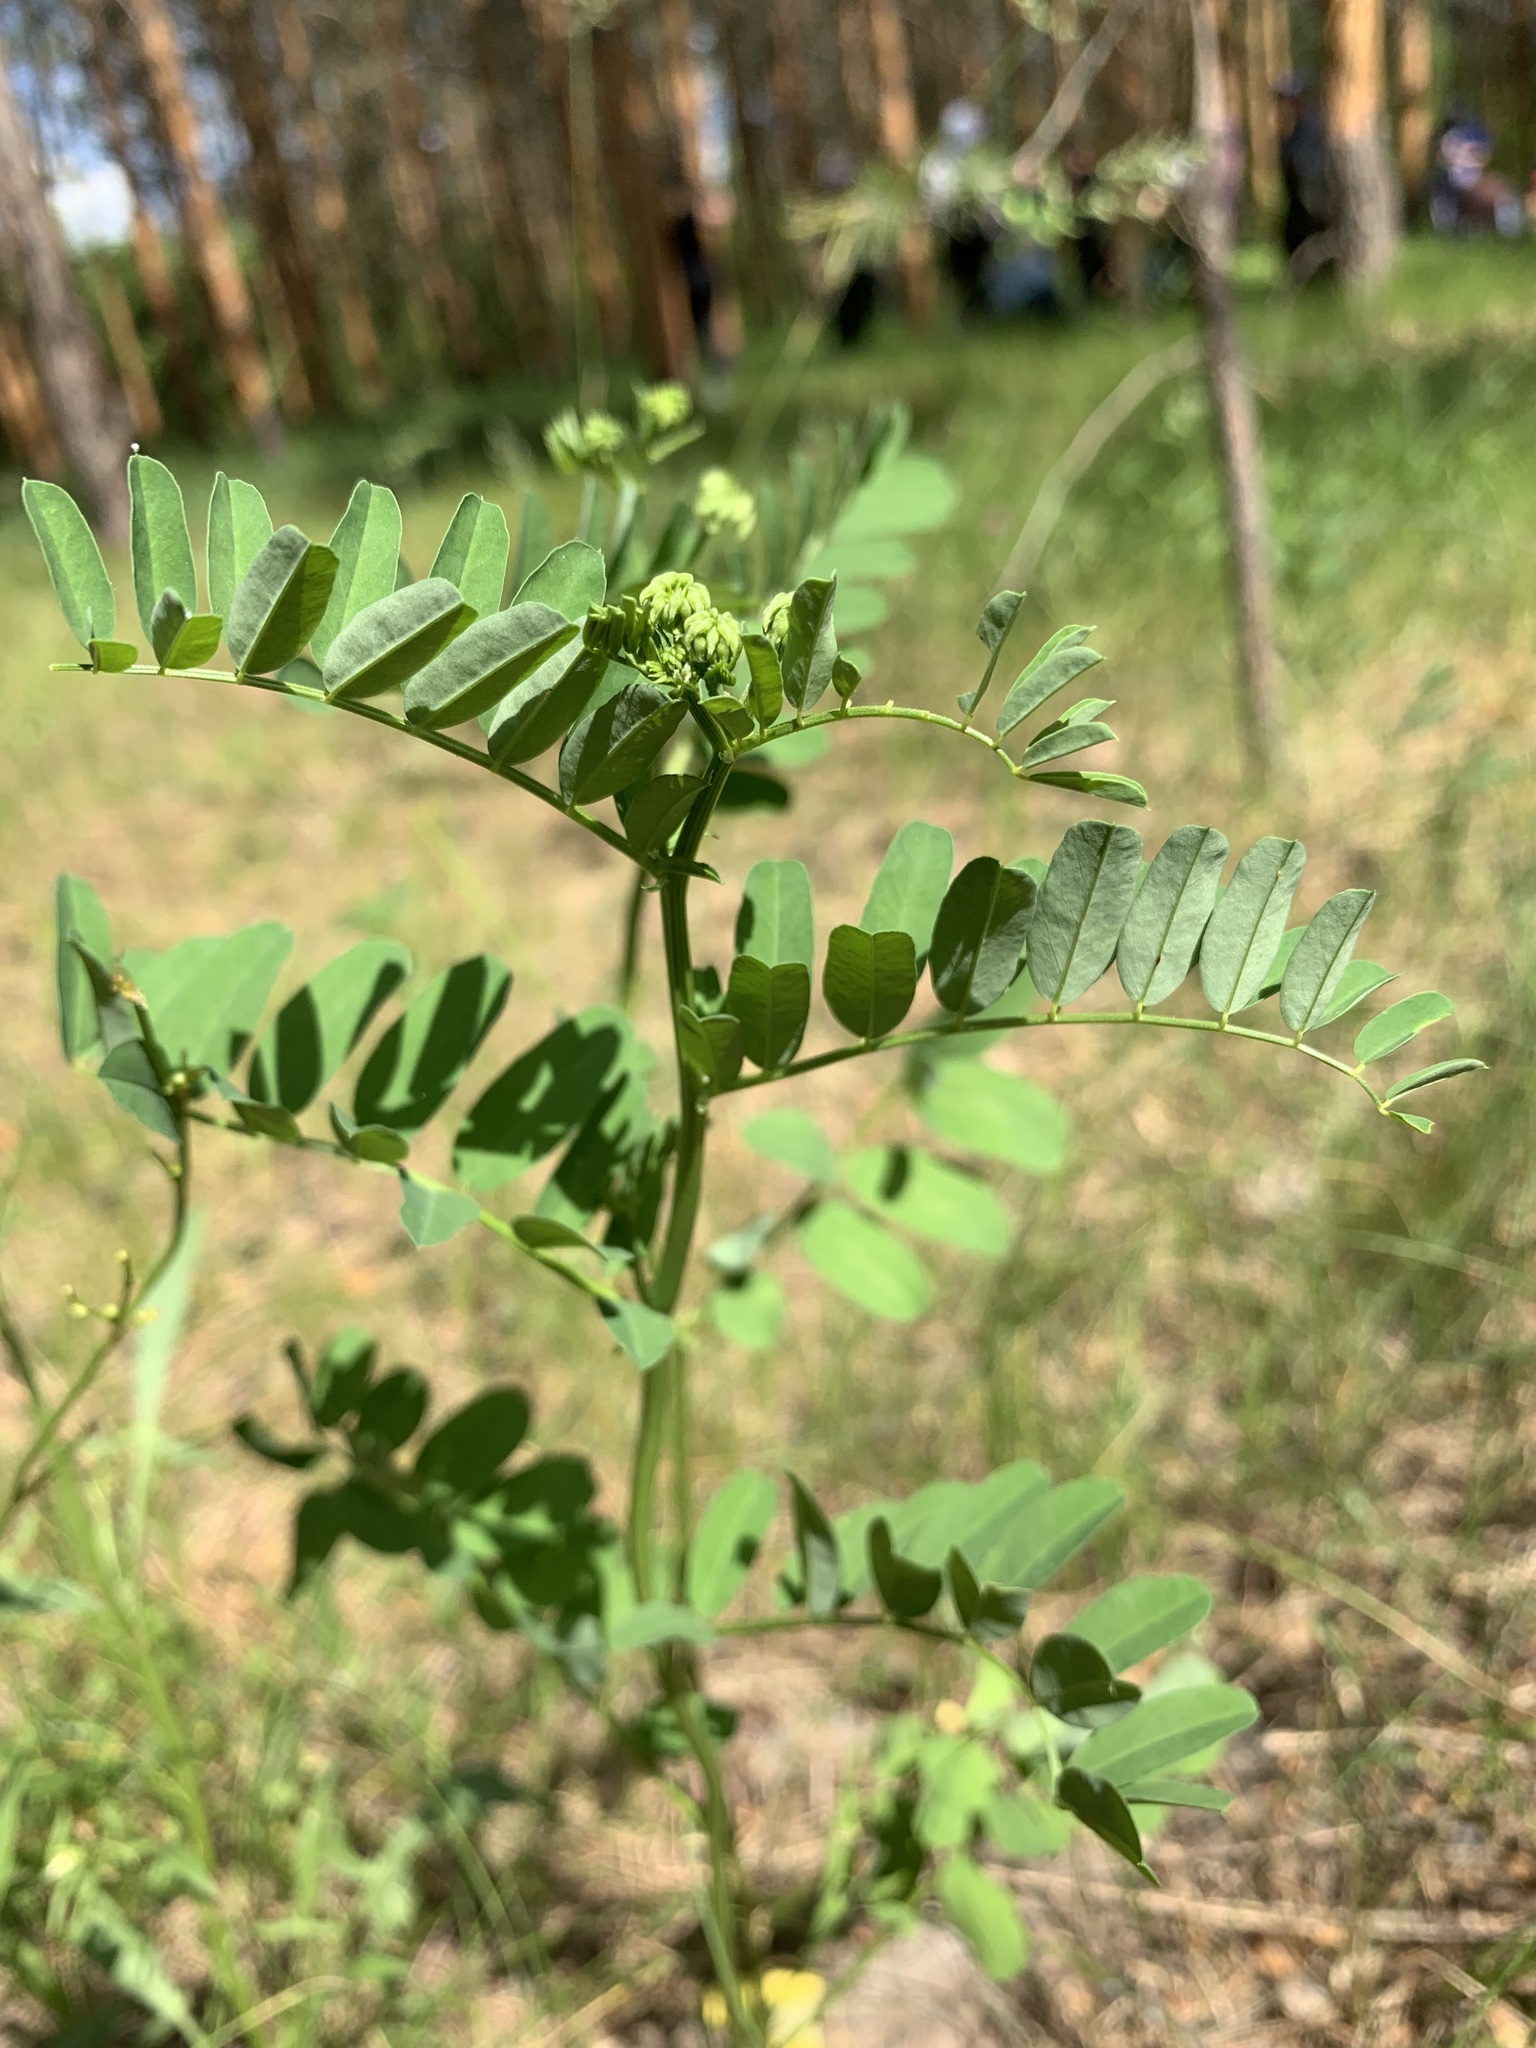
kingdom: Plantae
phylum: Tracheophyta
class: Magnoliopsida
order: Fabales
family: Fabaceae
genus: Coronilla
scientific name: Coronilla varia
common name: Crownvetch
